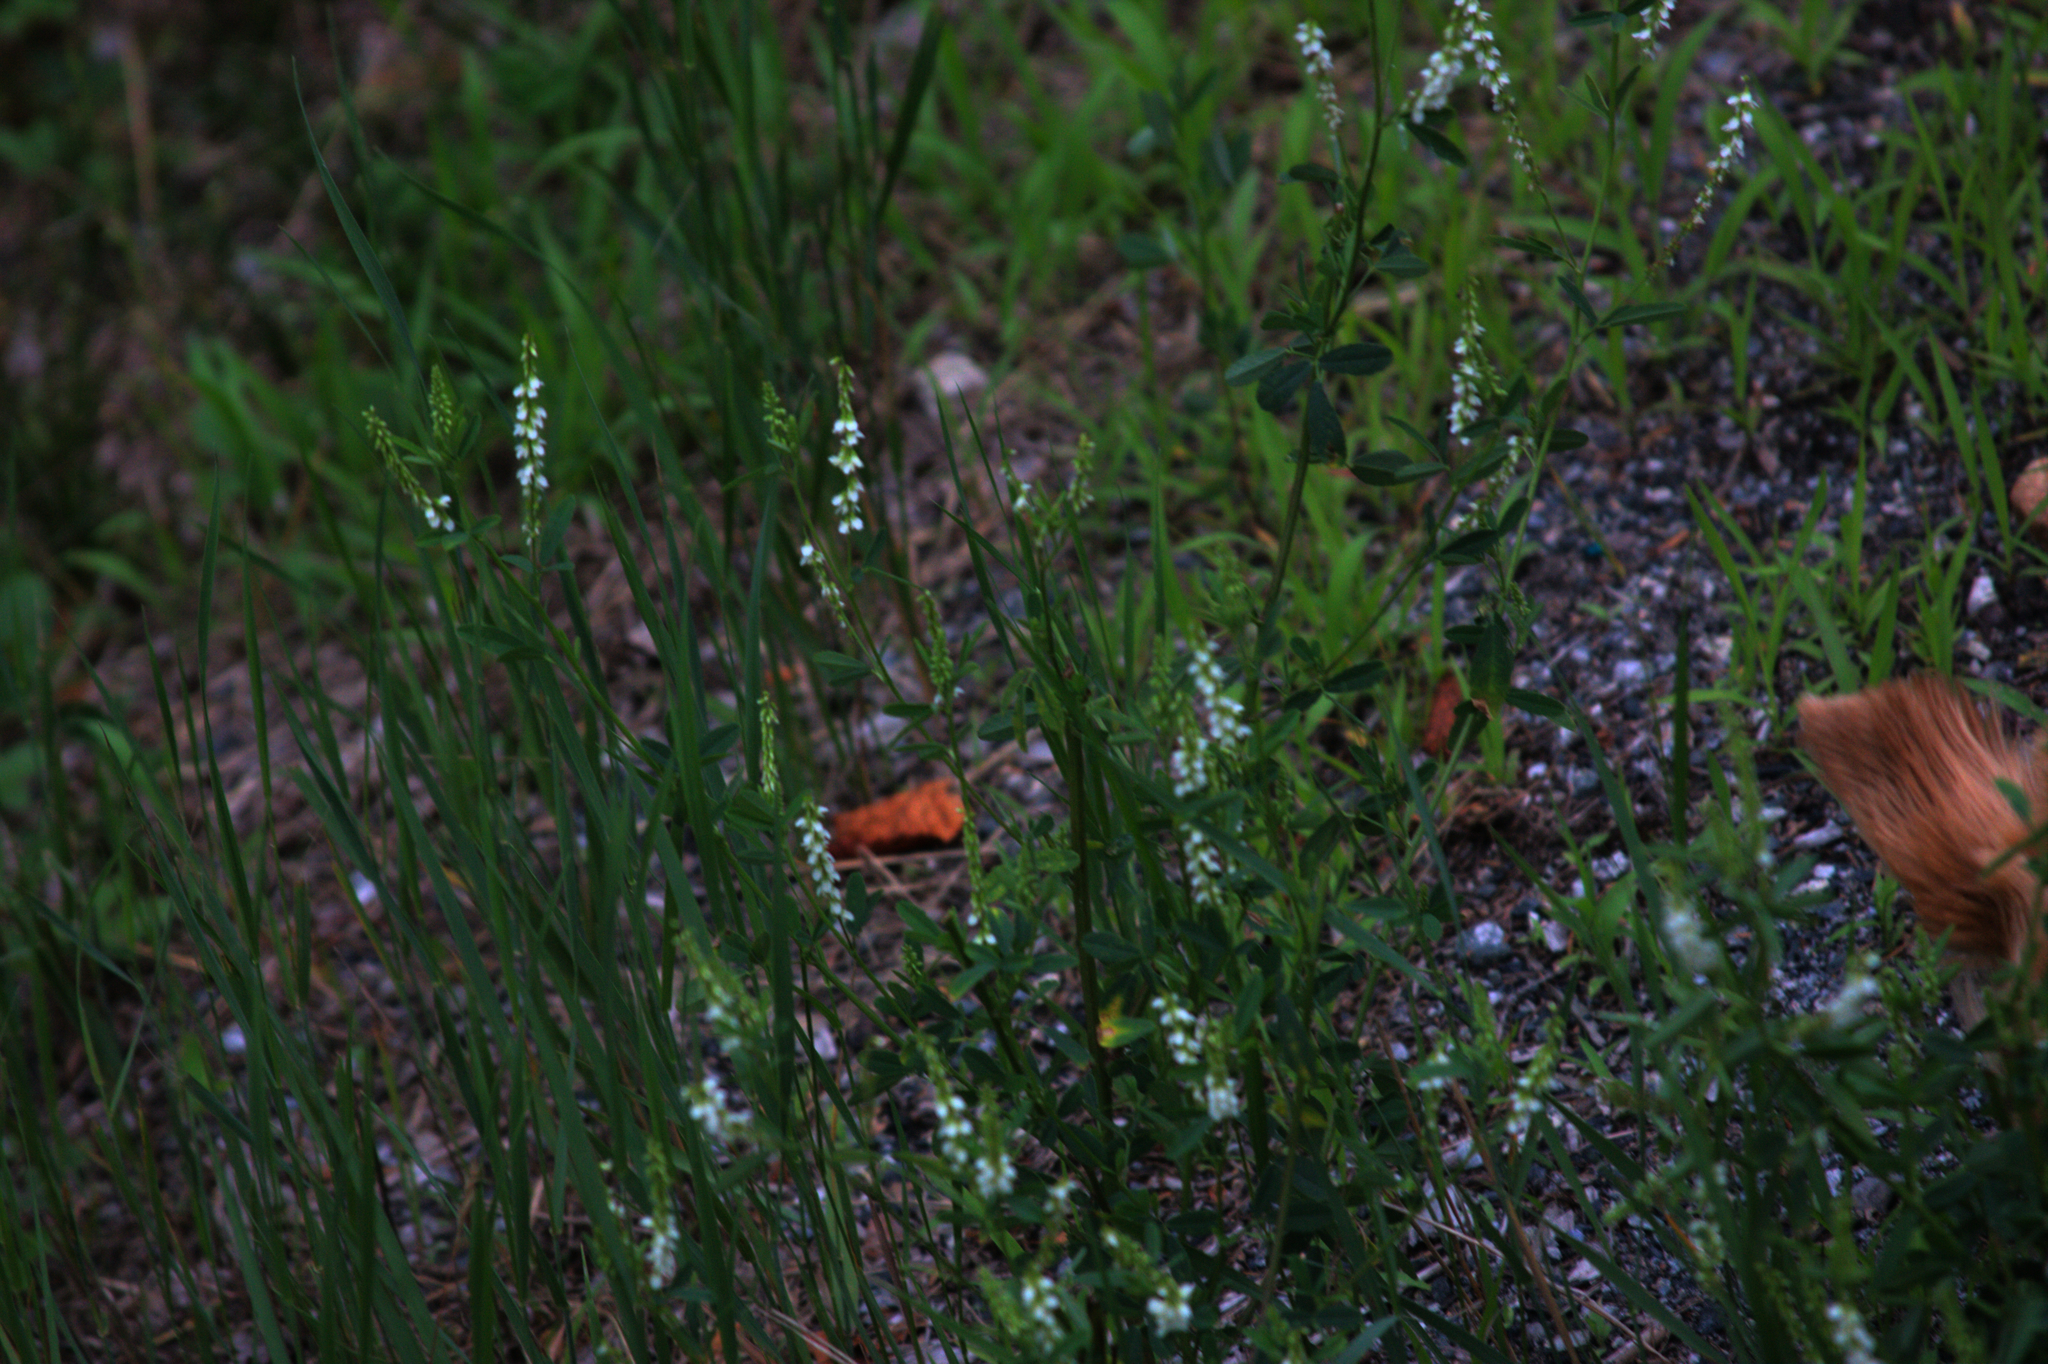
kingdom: Plantae
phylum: Tracheophyta
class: Magnoliopsida
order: Fabales
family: Fabaceae
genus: Melilotus
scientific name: Melilotus albus
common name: White melilot
